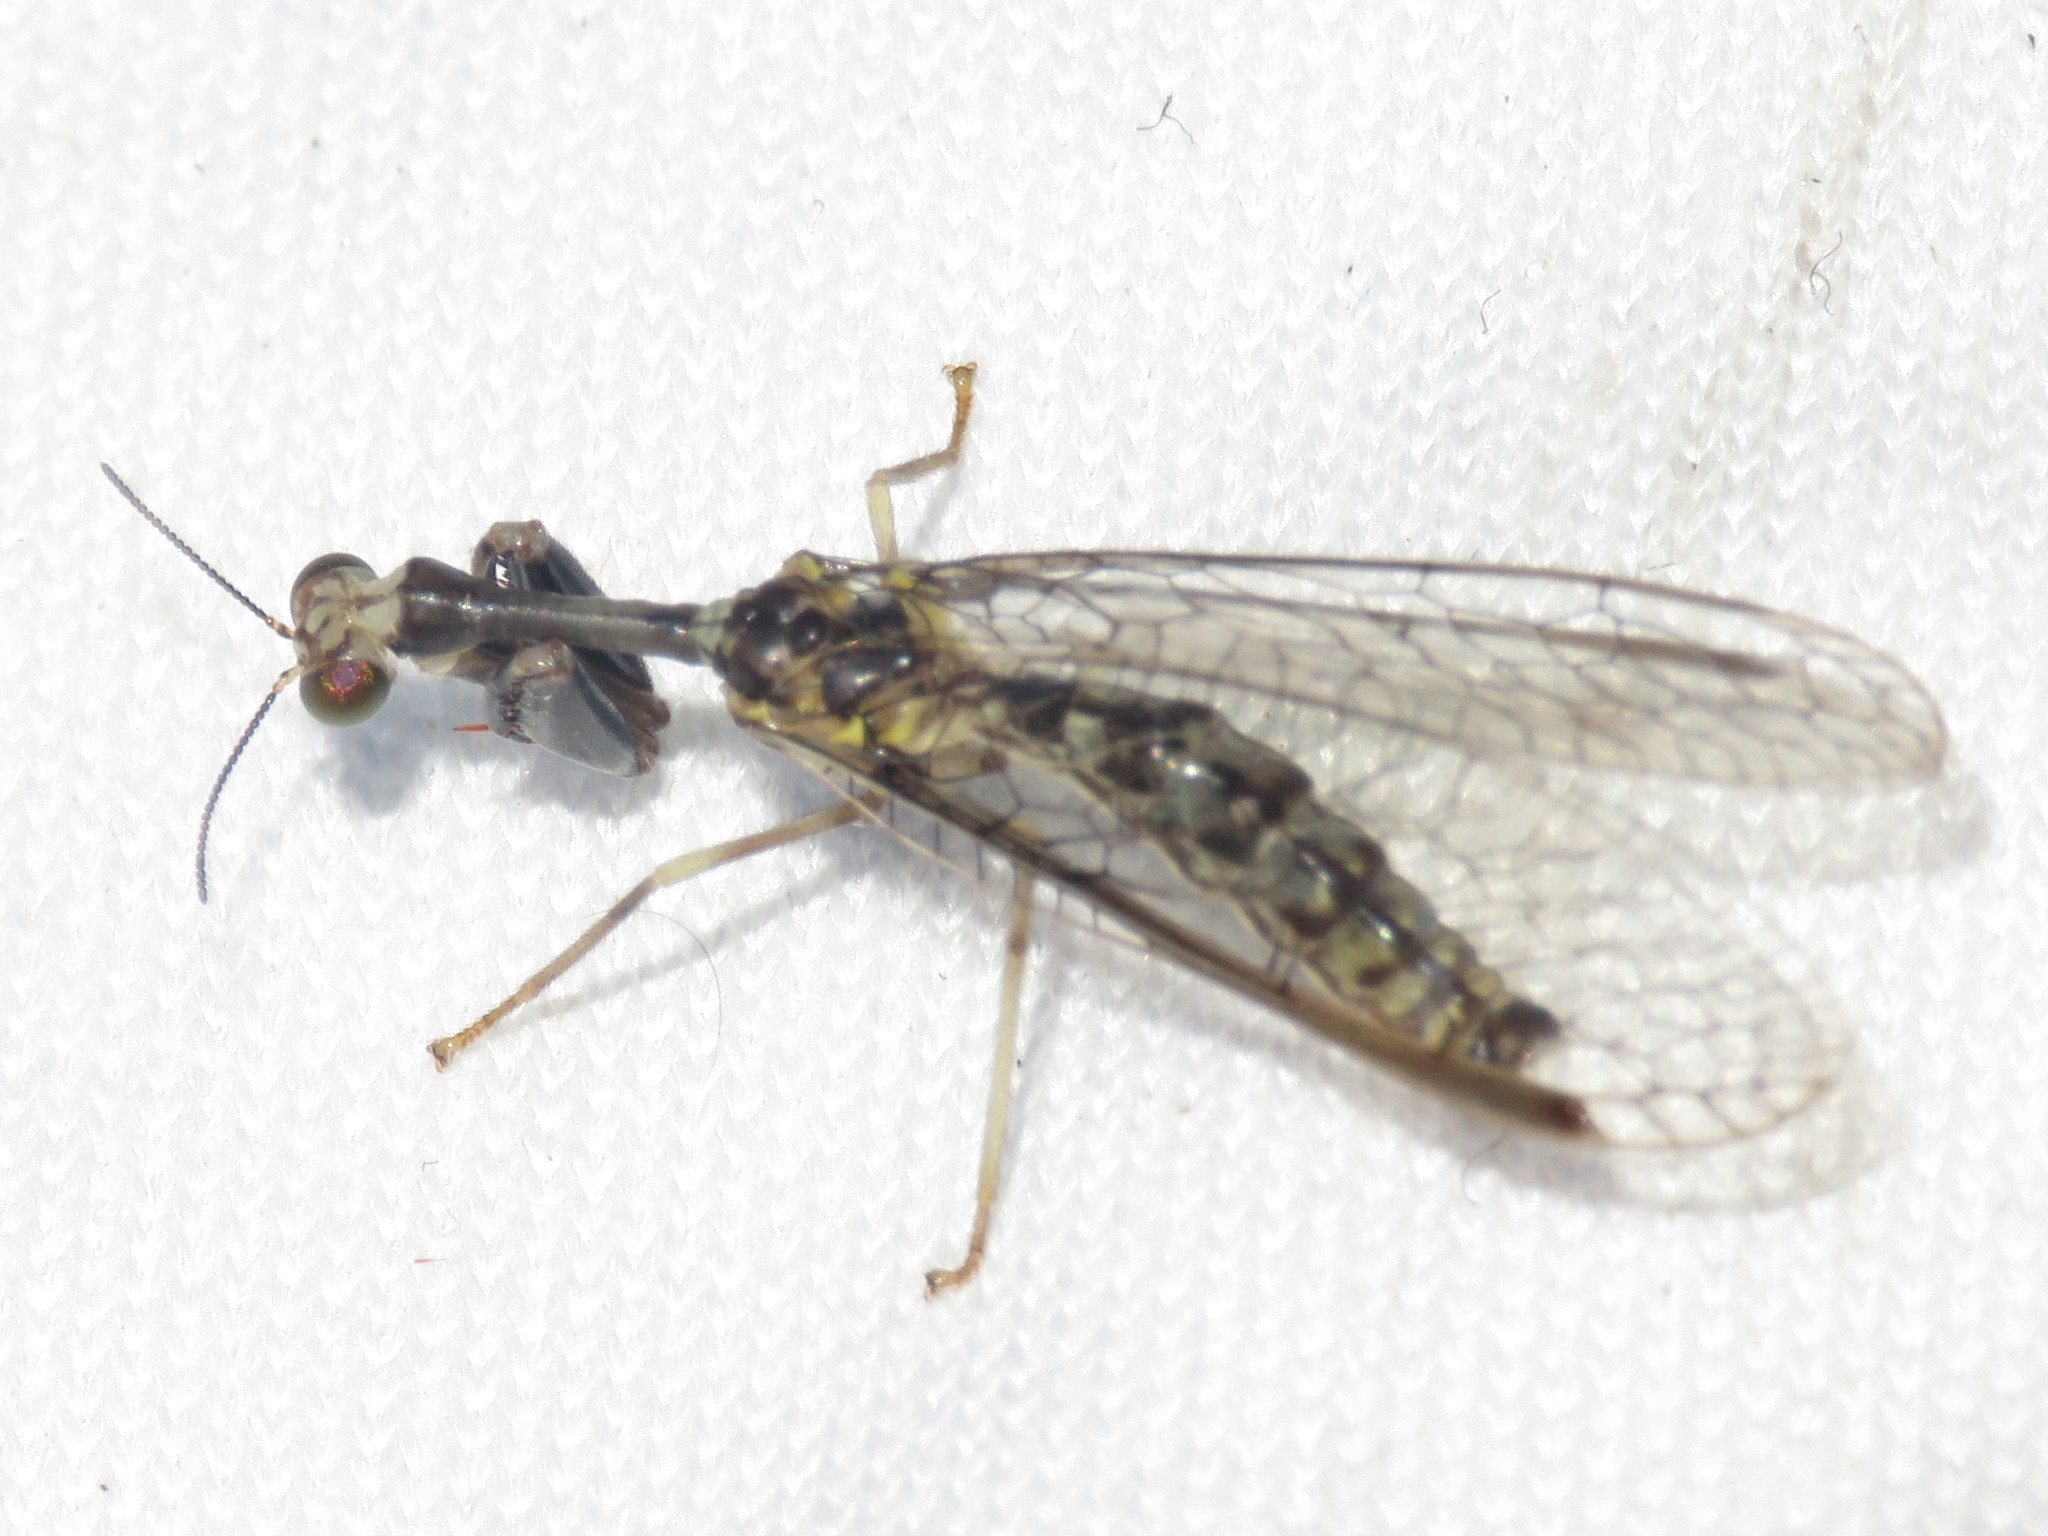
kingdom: Animalia
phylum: Arthropoda
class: Insecta
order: Neuroptera
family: Mantispidae
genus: Dicromantispa
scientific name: Dicromantispa sayi
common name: Say's mantidfly
